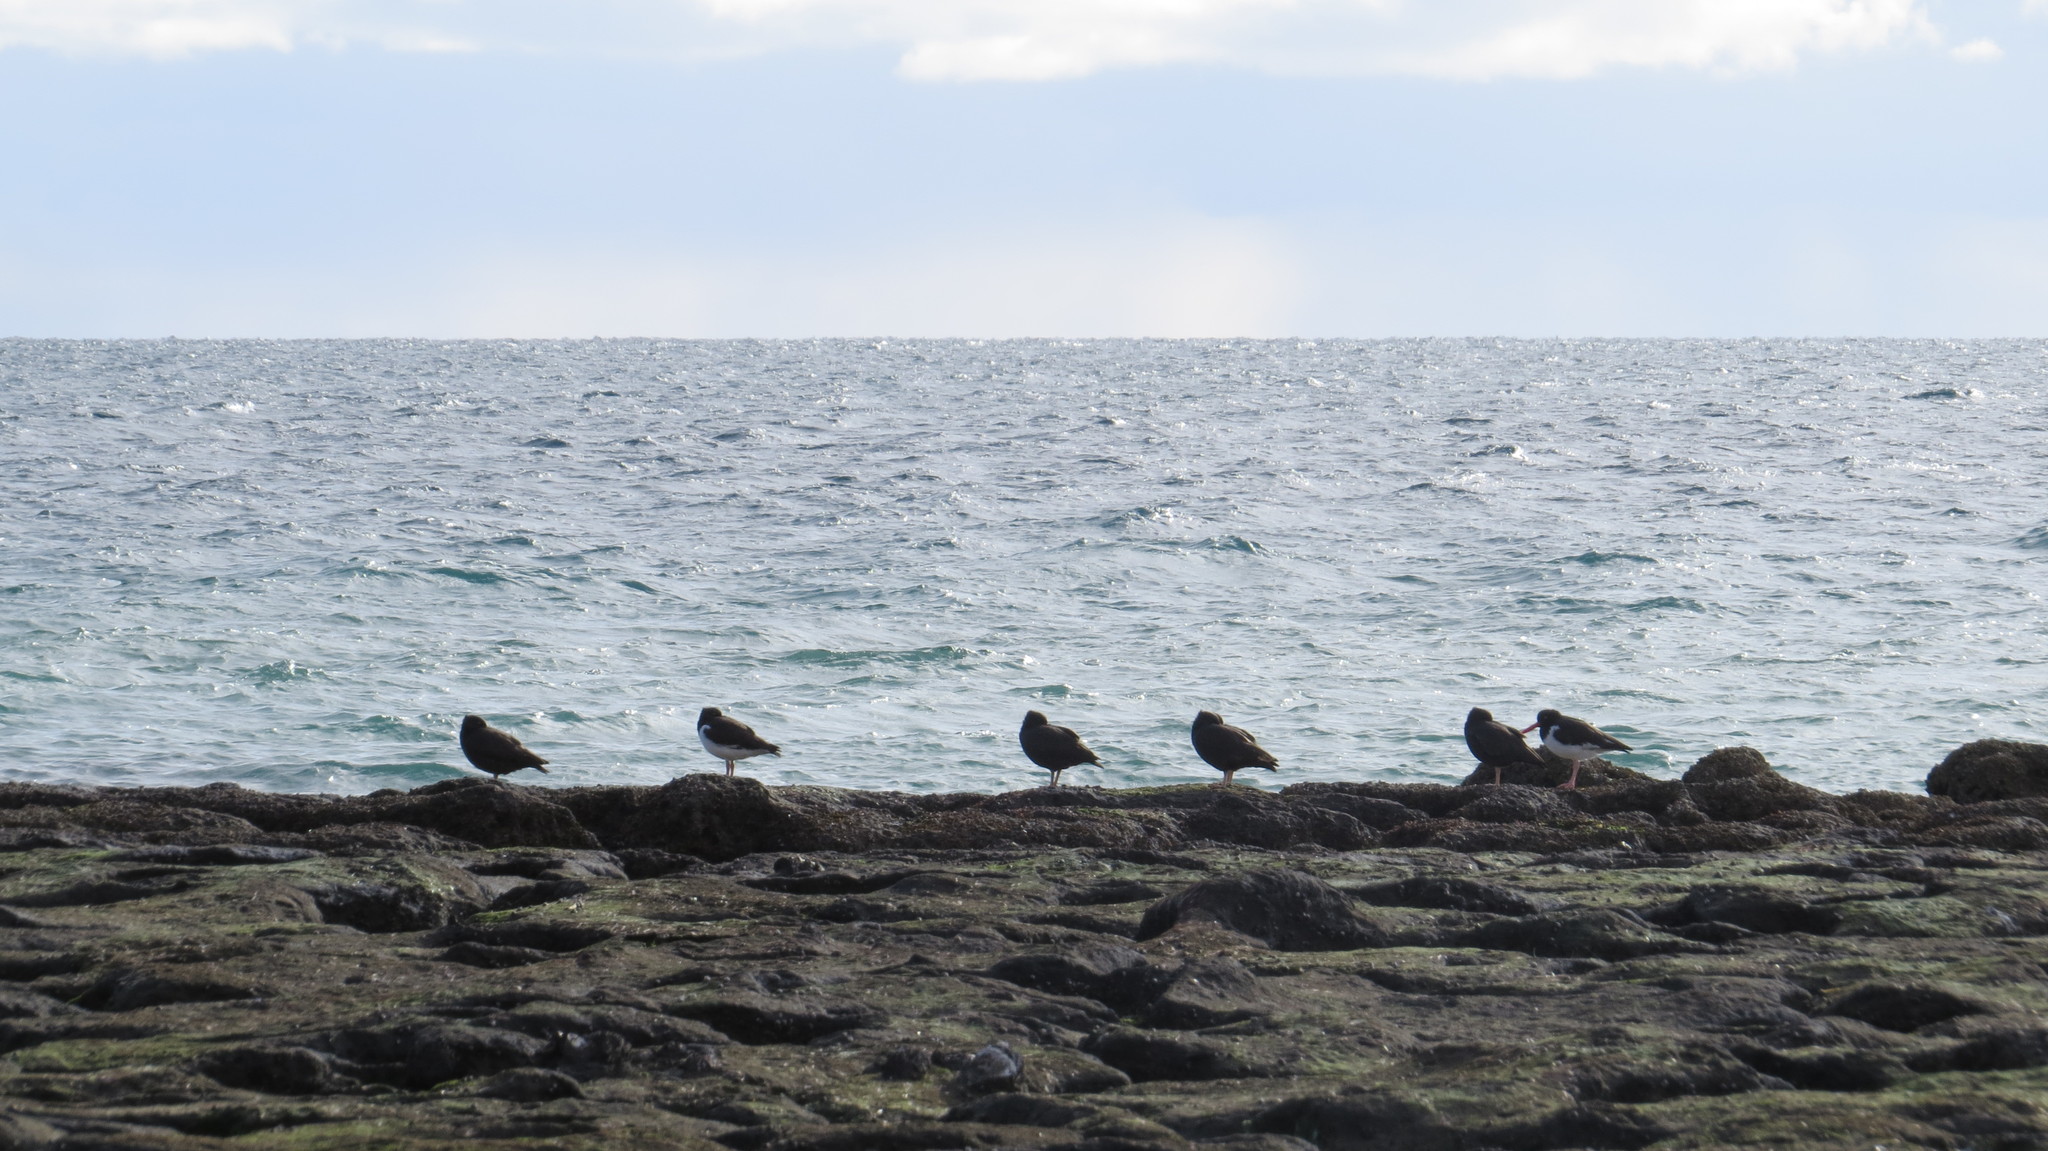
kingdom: Animalia
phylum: Chordata
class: Aves
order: Charadriiformes
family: Haematopodidae
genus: Haematopus
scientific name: Haematopus ater
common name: Blackish oystercatcher
